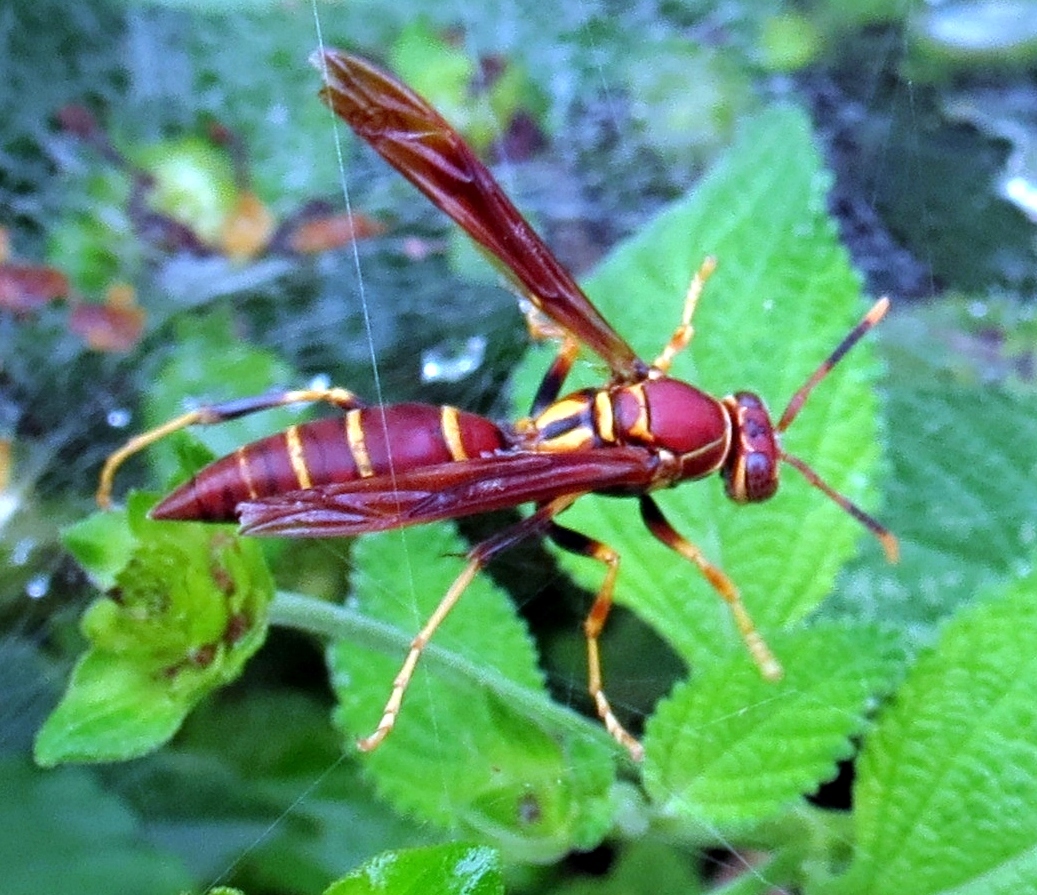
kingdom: Animalia
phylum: Arthropoda
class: Insecta
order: Hymenoptera
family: Eumenidae
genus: Polistes
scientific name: Polistes instabilis
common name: Unstable paper wasp
